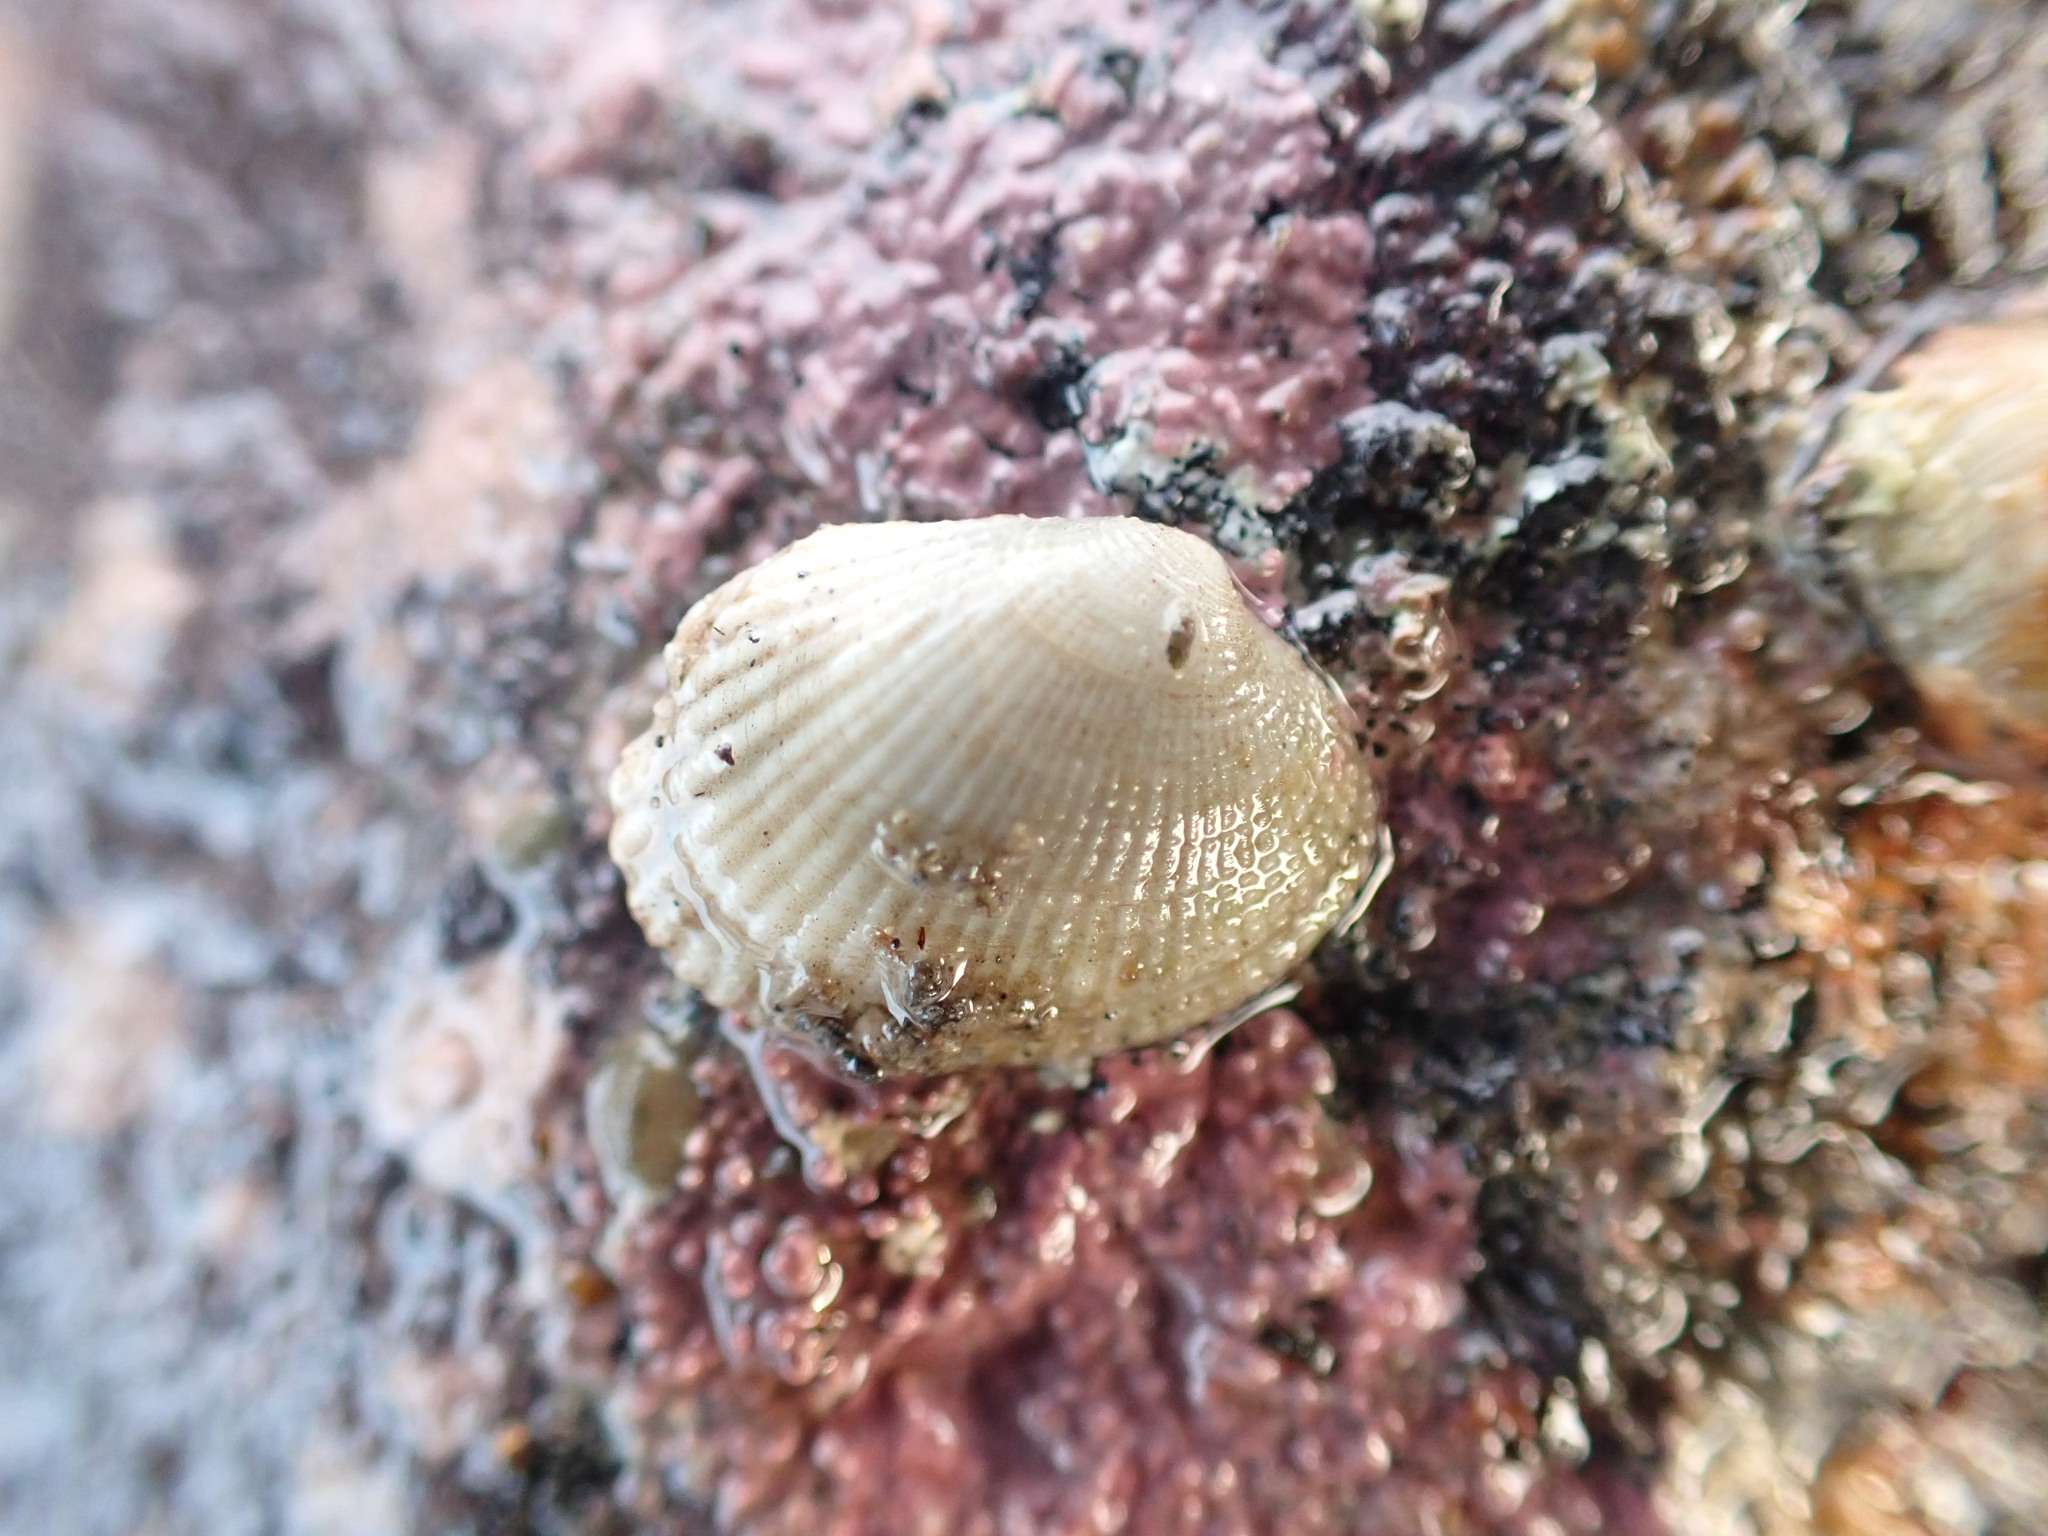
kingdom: Animalia
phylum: Mollusca
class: Bivalvia
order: Venerida
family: Veneridae
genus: Leukoma
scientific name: Leukoma crassicosta
